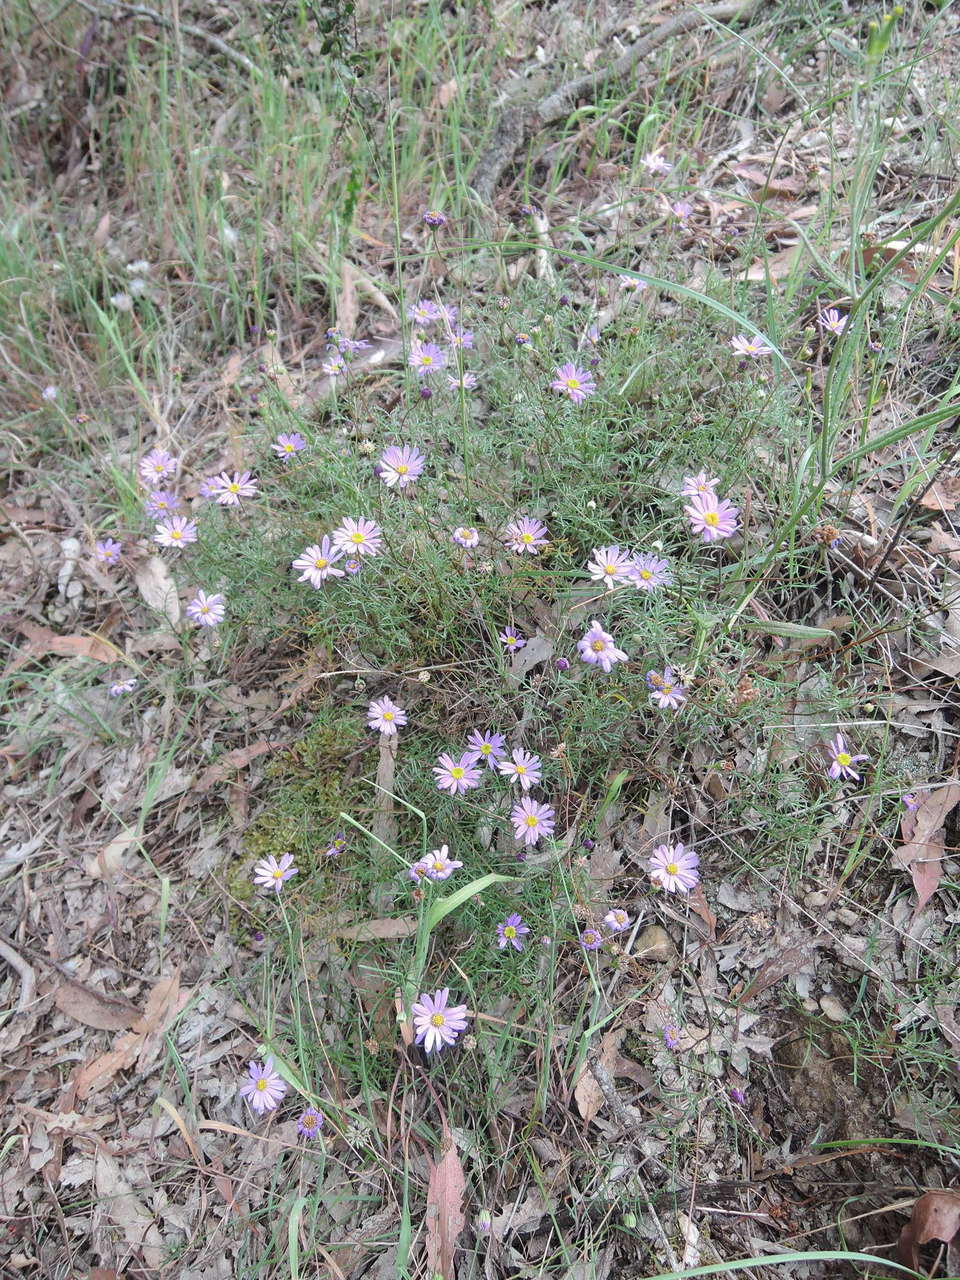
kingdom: Plantae
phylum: Tracheophyta
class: Magnoliopsida
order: Asterales
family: Asteraceae
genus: Brachyscome
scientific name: Brachyscome multifida
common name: Cut-leaf daisy
